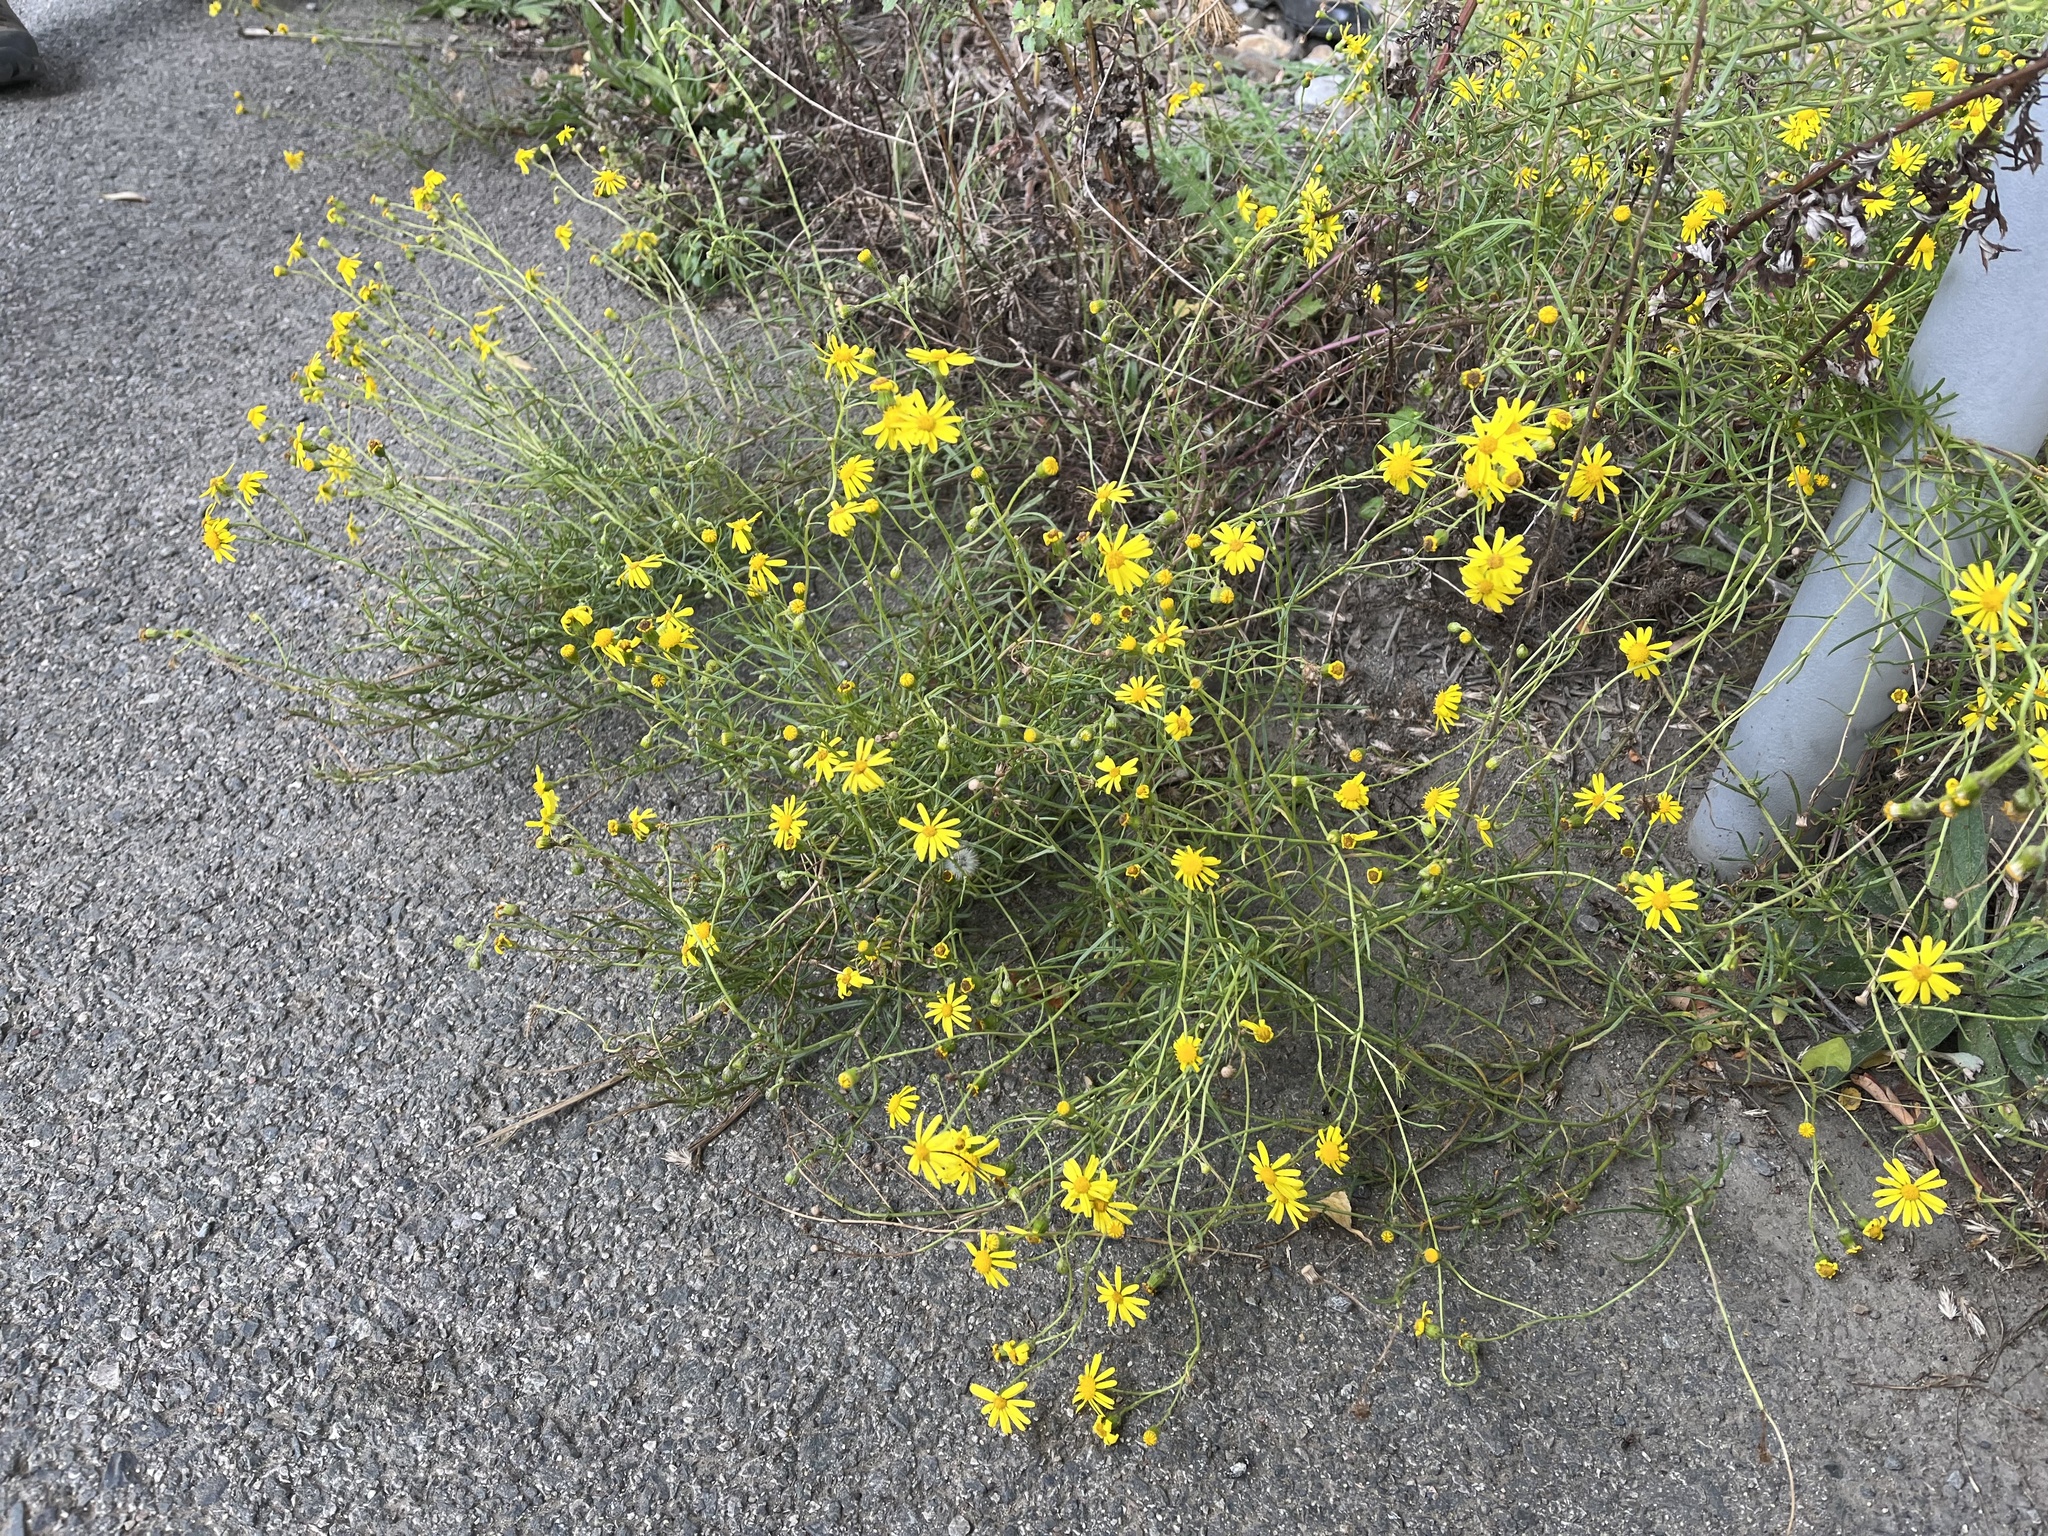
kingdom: Plantae
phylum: Tracheophyta
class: Magnoliopsida
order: Asterales
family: Asteraceae
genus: Senecio
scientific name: Senecio inaequidens
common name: Narrow-leaved ragwort
